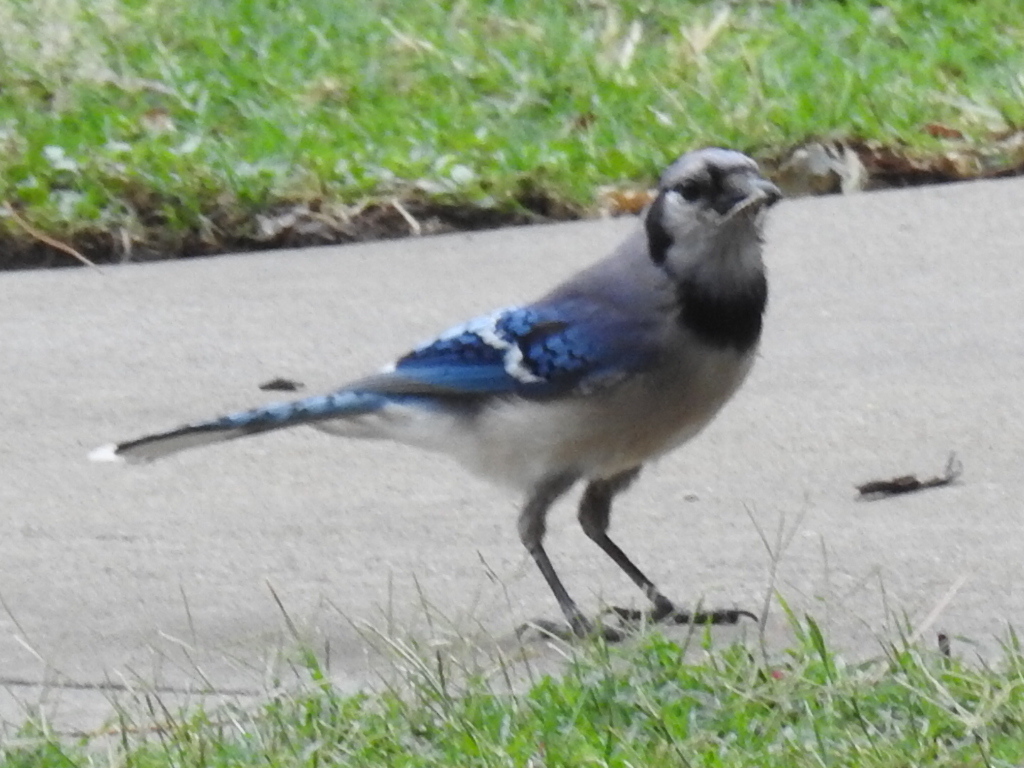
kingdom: Animalia
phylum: Chordata
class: Aves
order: Passeriformes
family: Corvidae
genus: Cyanocitta
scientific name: Cyanocitta cristata
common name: Blue jay
